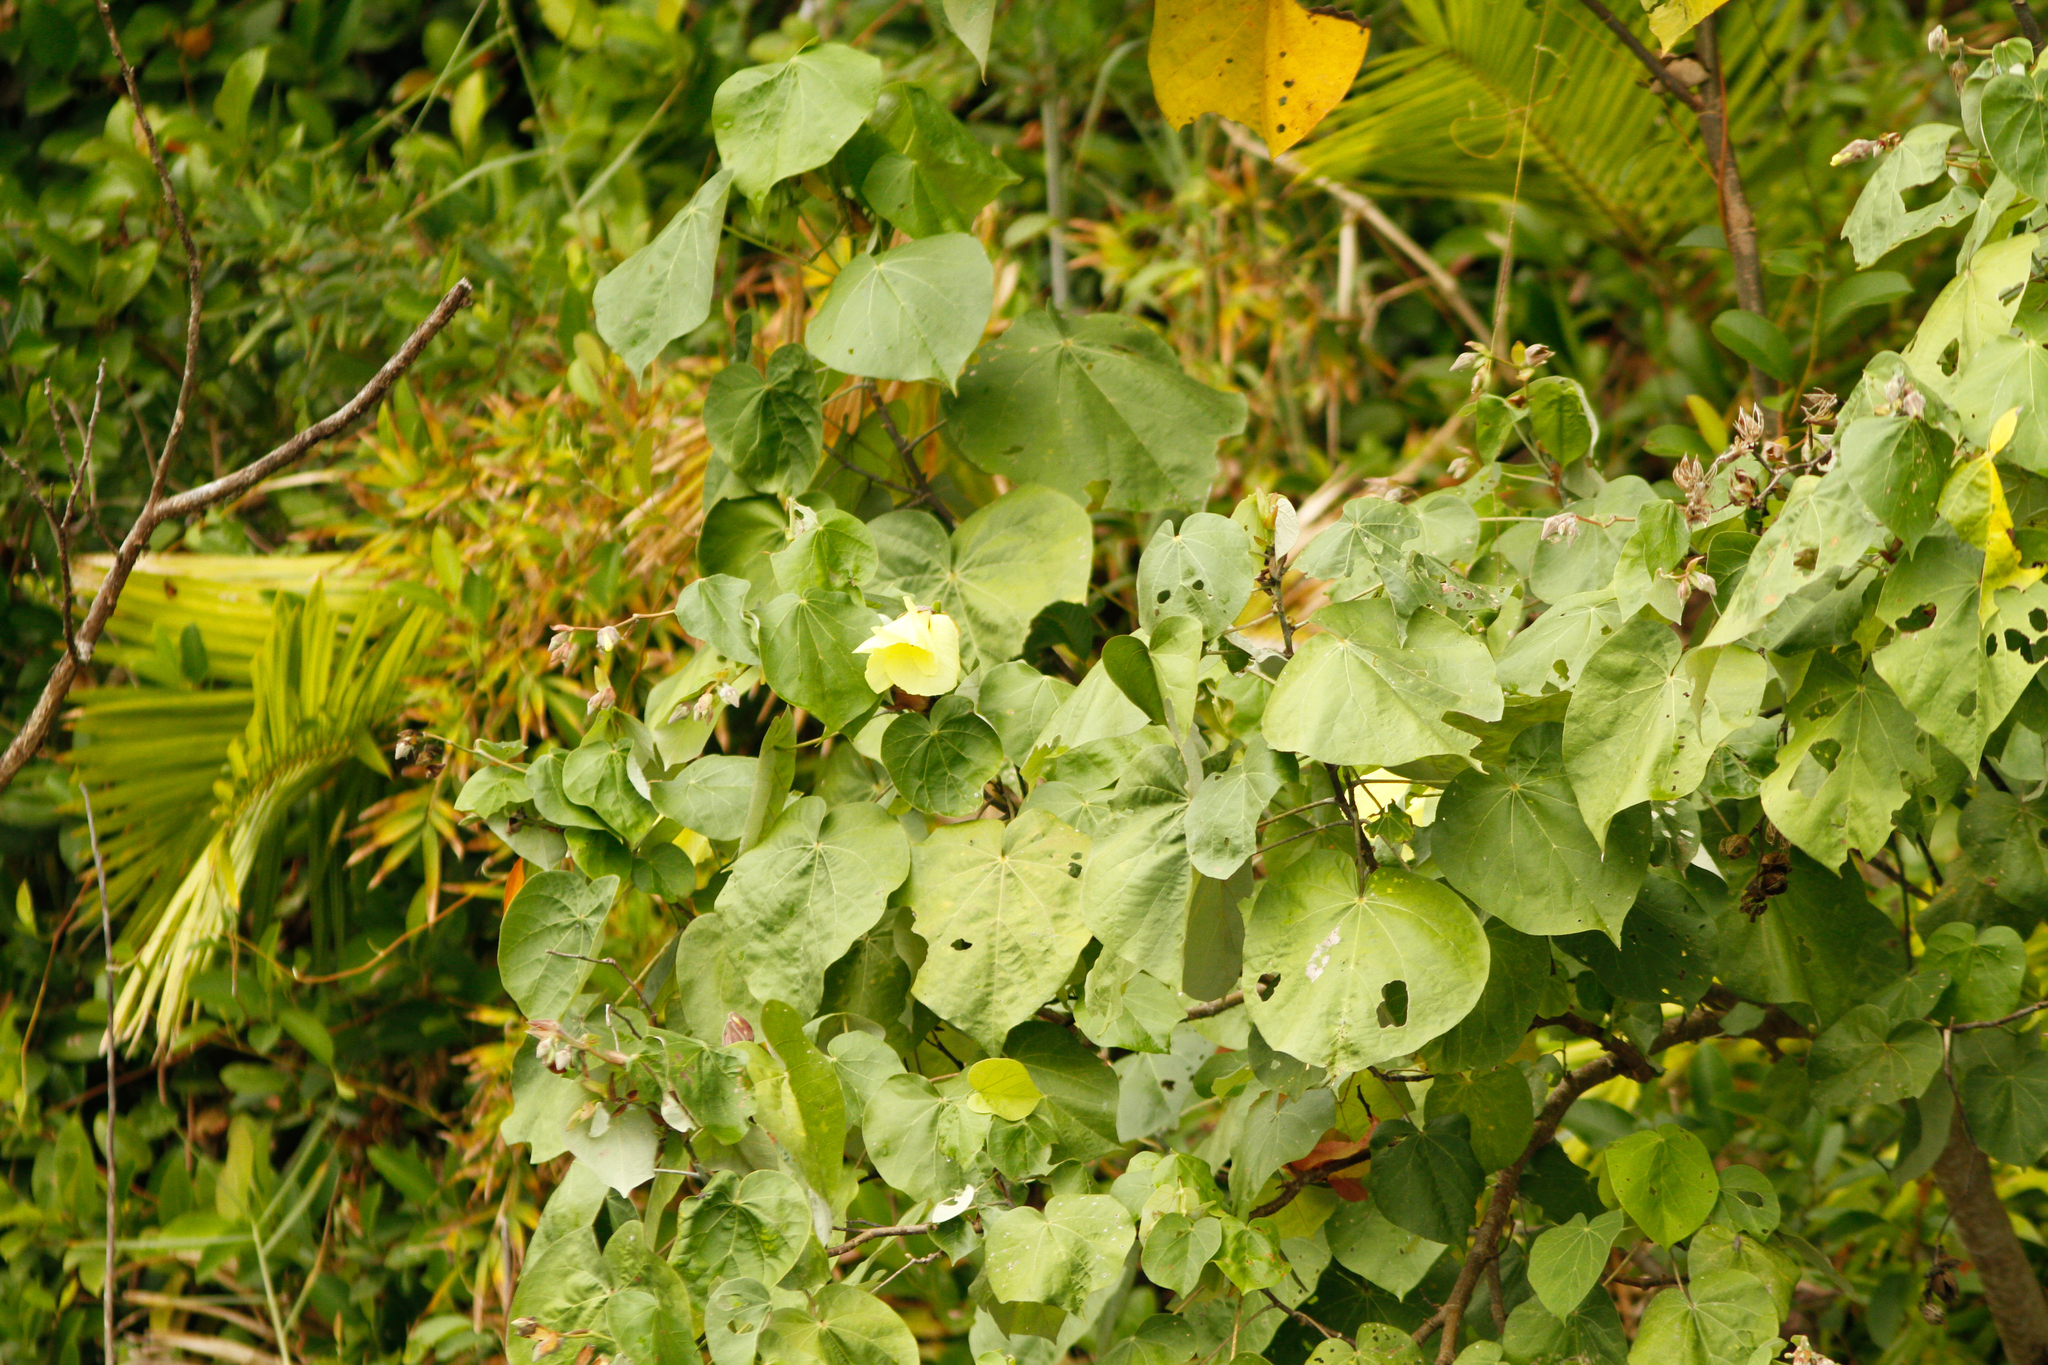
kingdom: Plantae
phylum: Tracheophyta
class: Magnoliopsida
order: Malvales
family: Malvaceae
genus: Talipariti
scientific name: Talipariti tiliaceum
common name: Sea hibiscus
